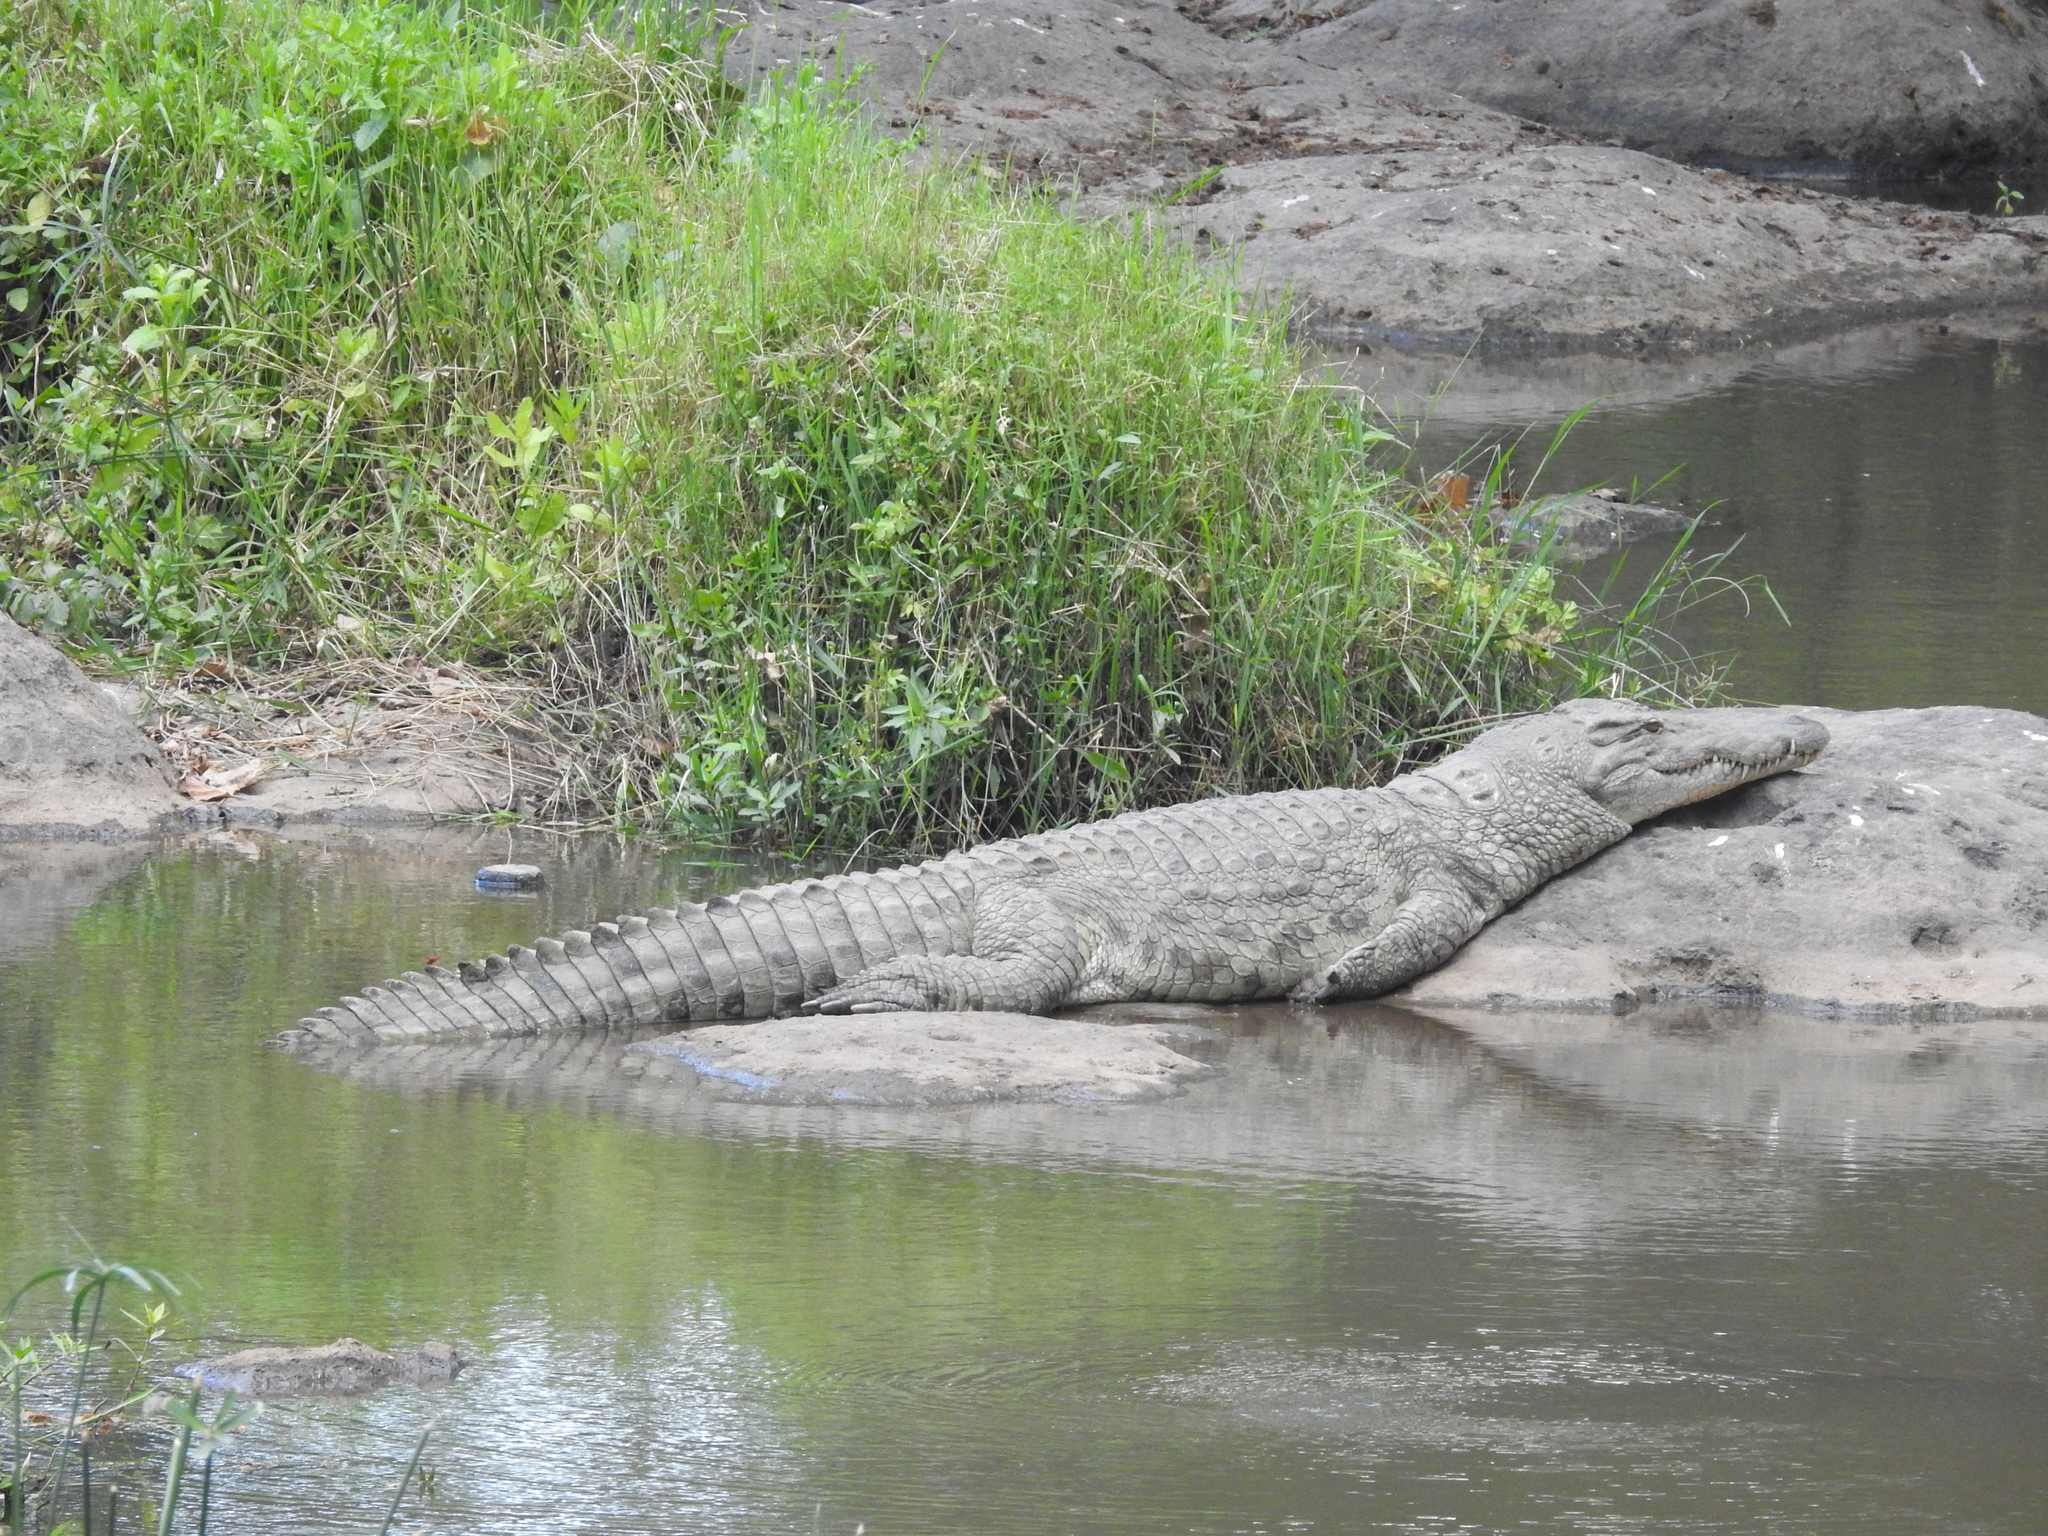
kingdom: Animalia
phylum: Chordata
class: Crocodylia
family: Crocodylidae
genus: Crocodylus
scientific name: Crocodylus niloticus
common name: Nile crocodile
